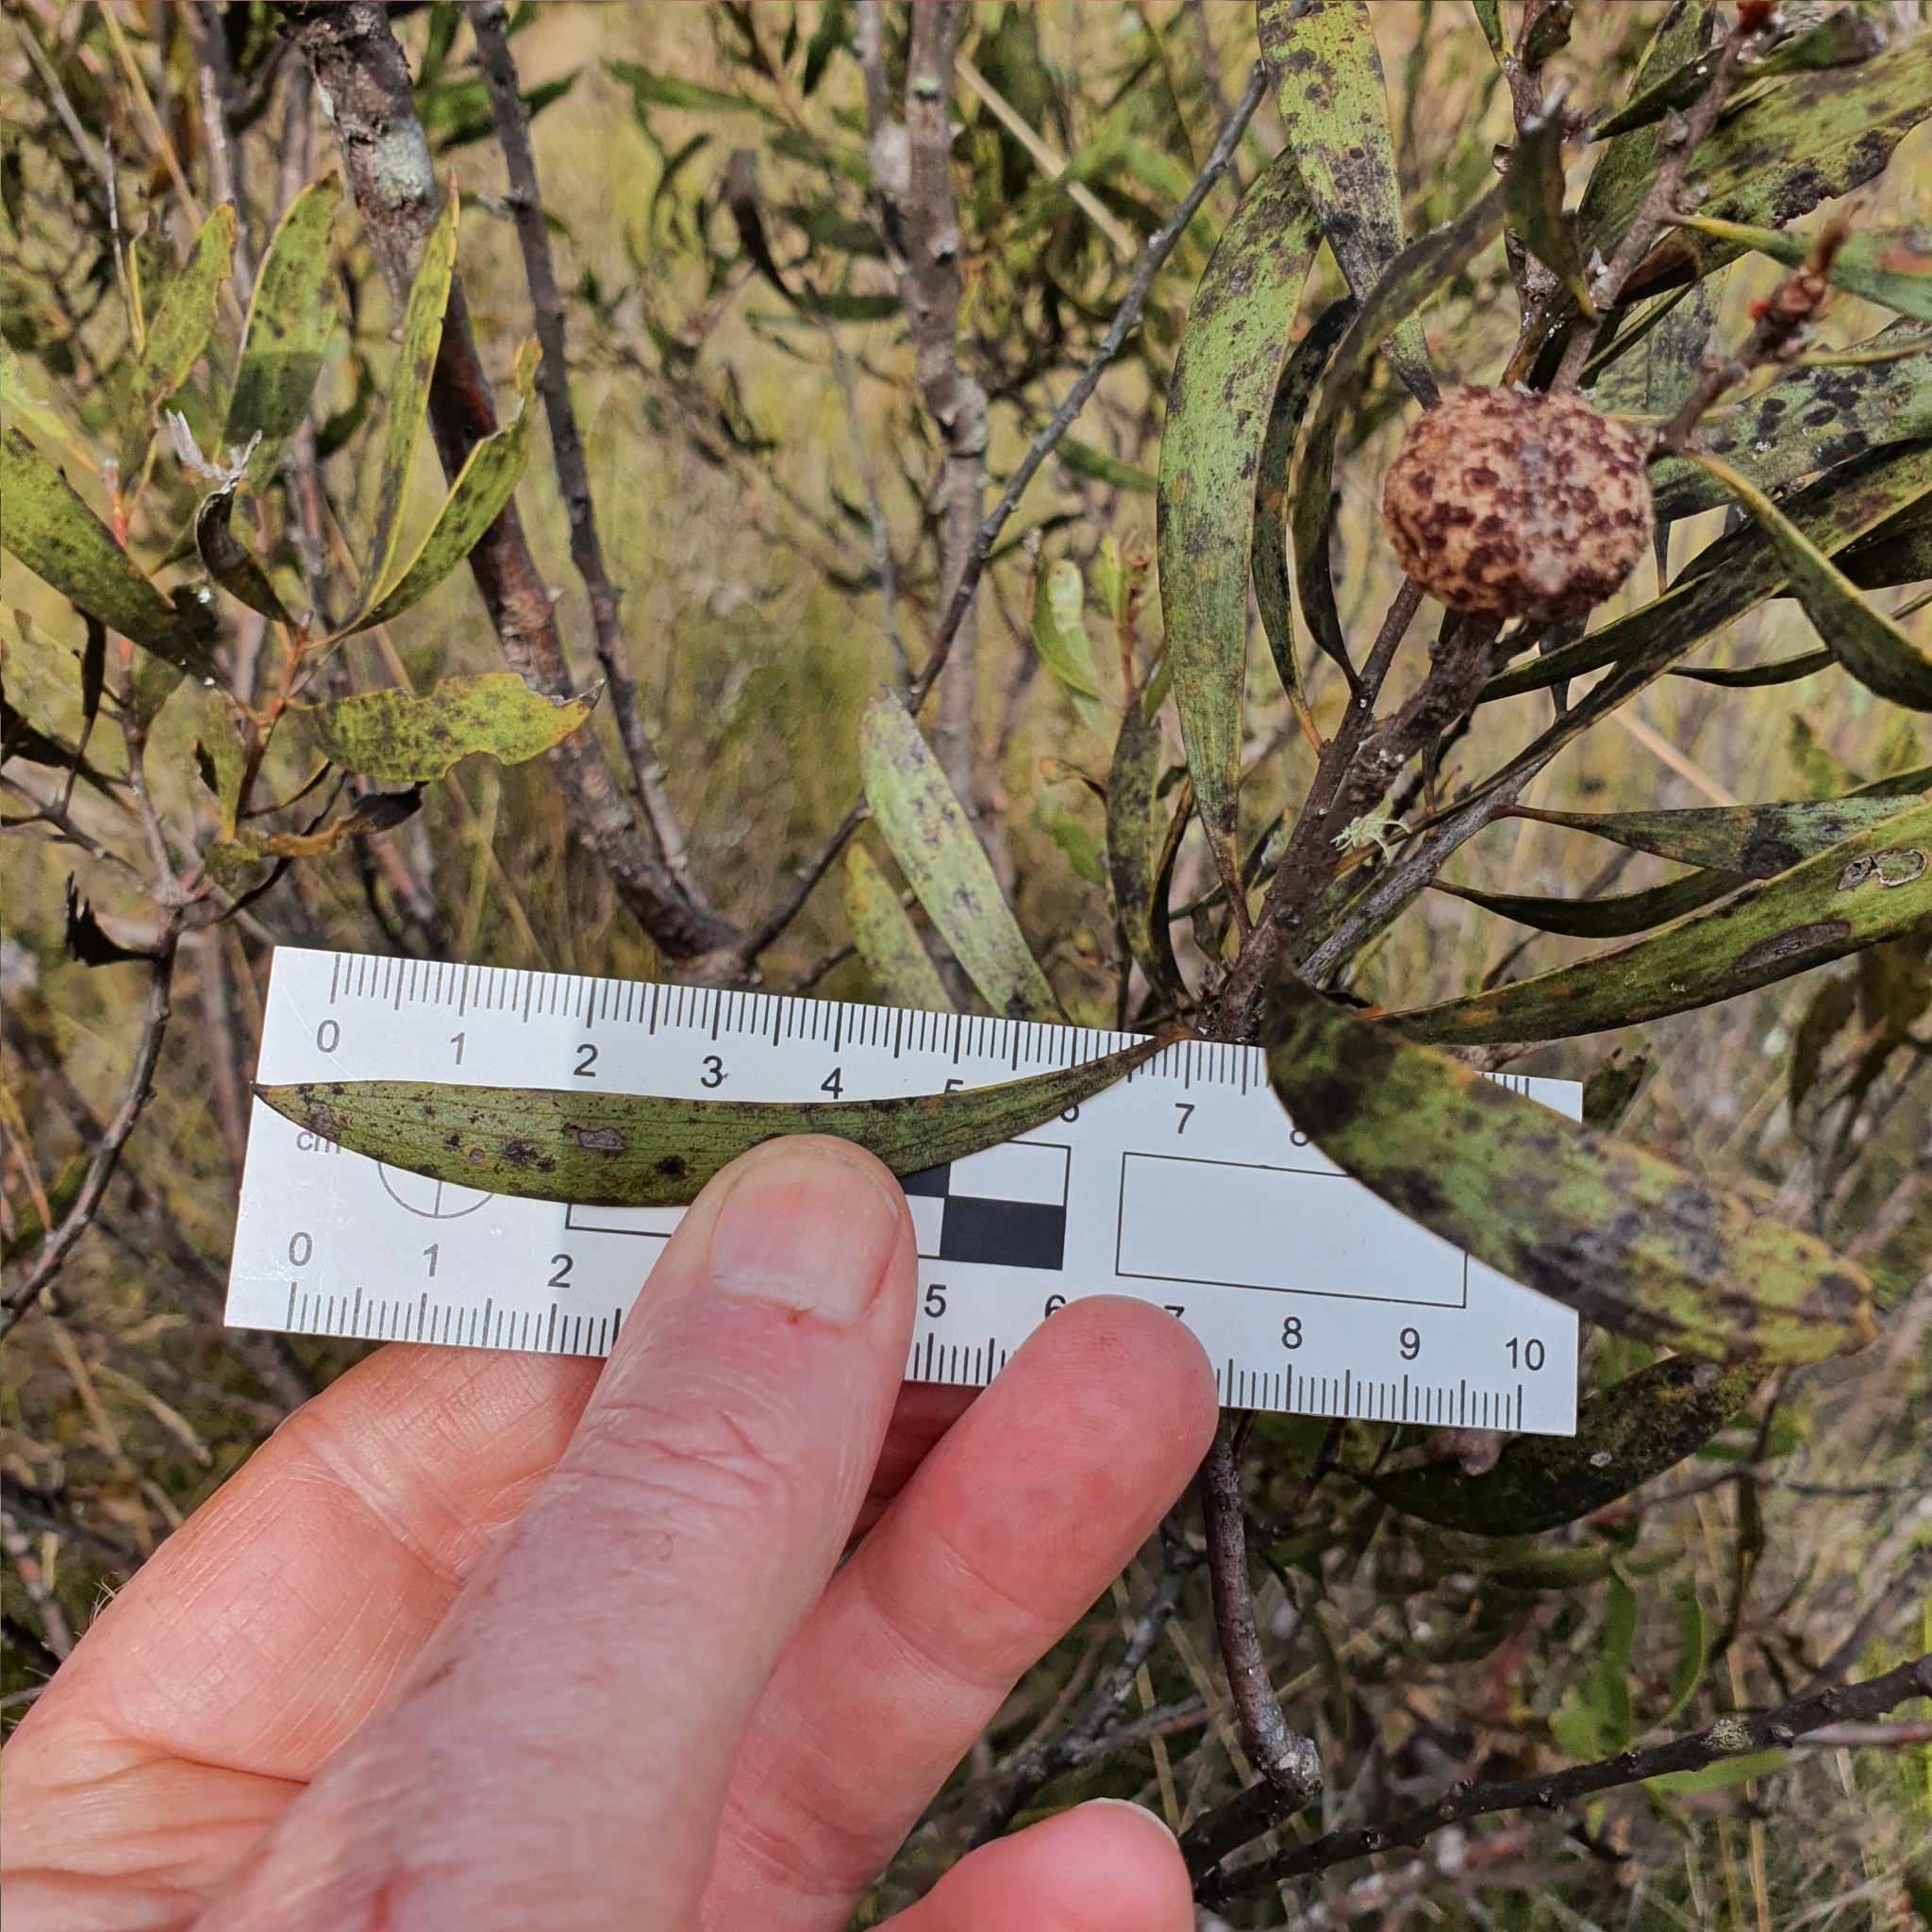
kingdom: Plantae
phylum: Tracheophyta
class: Magnoliopsida
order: Proteales
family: Proteaceae
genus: Hakea
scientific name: Hakea laevipes
